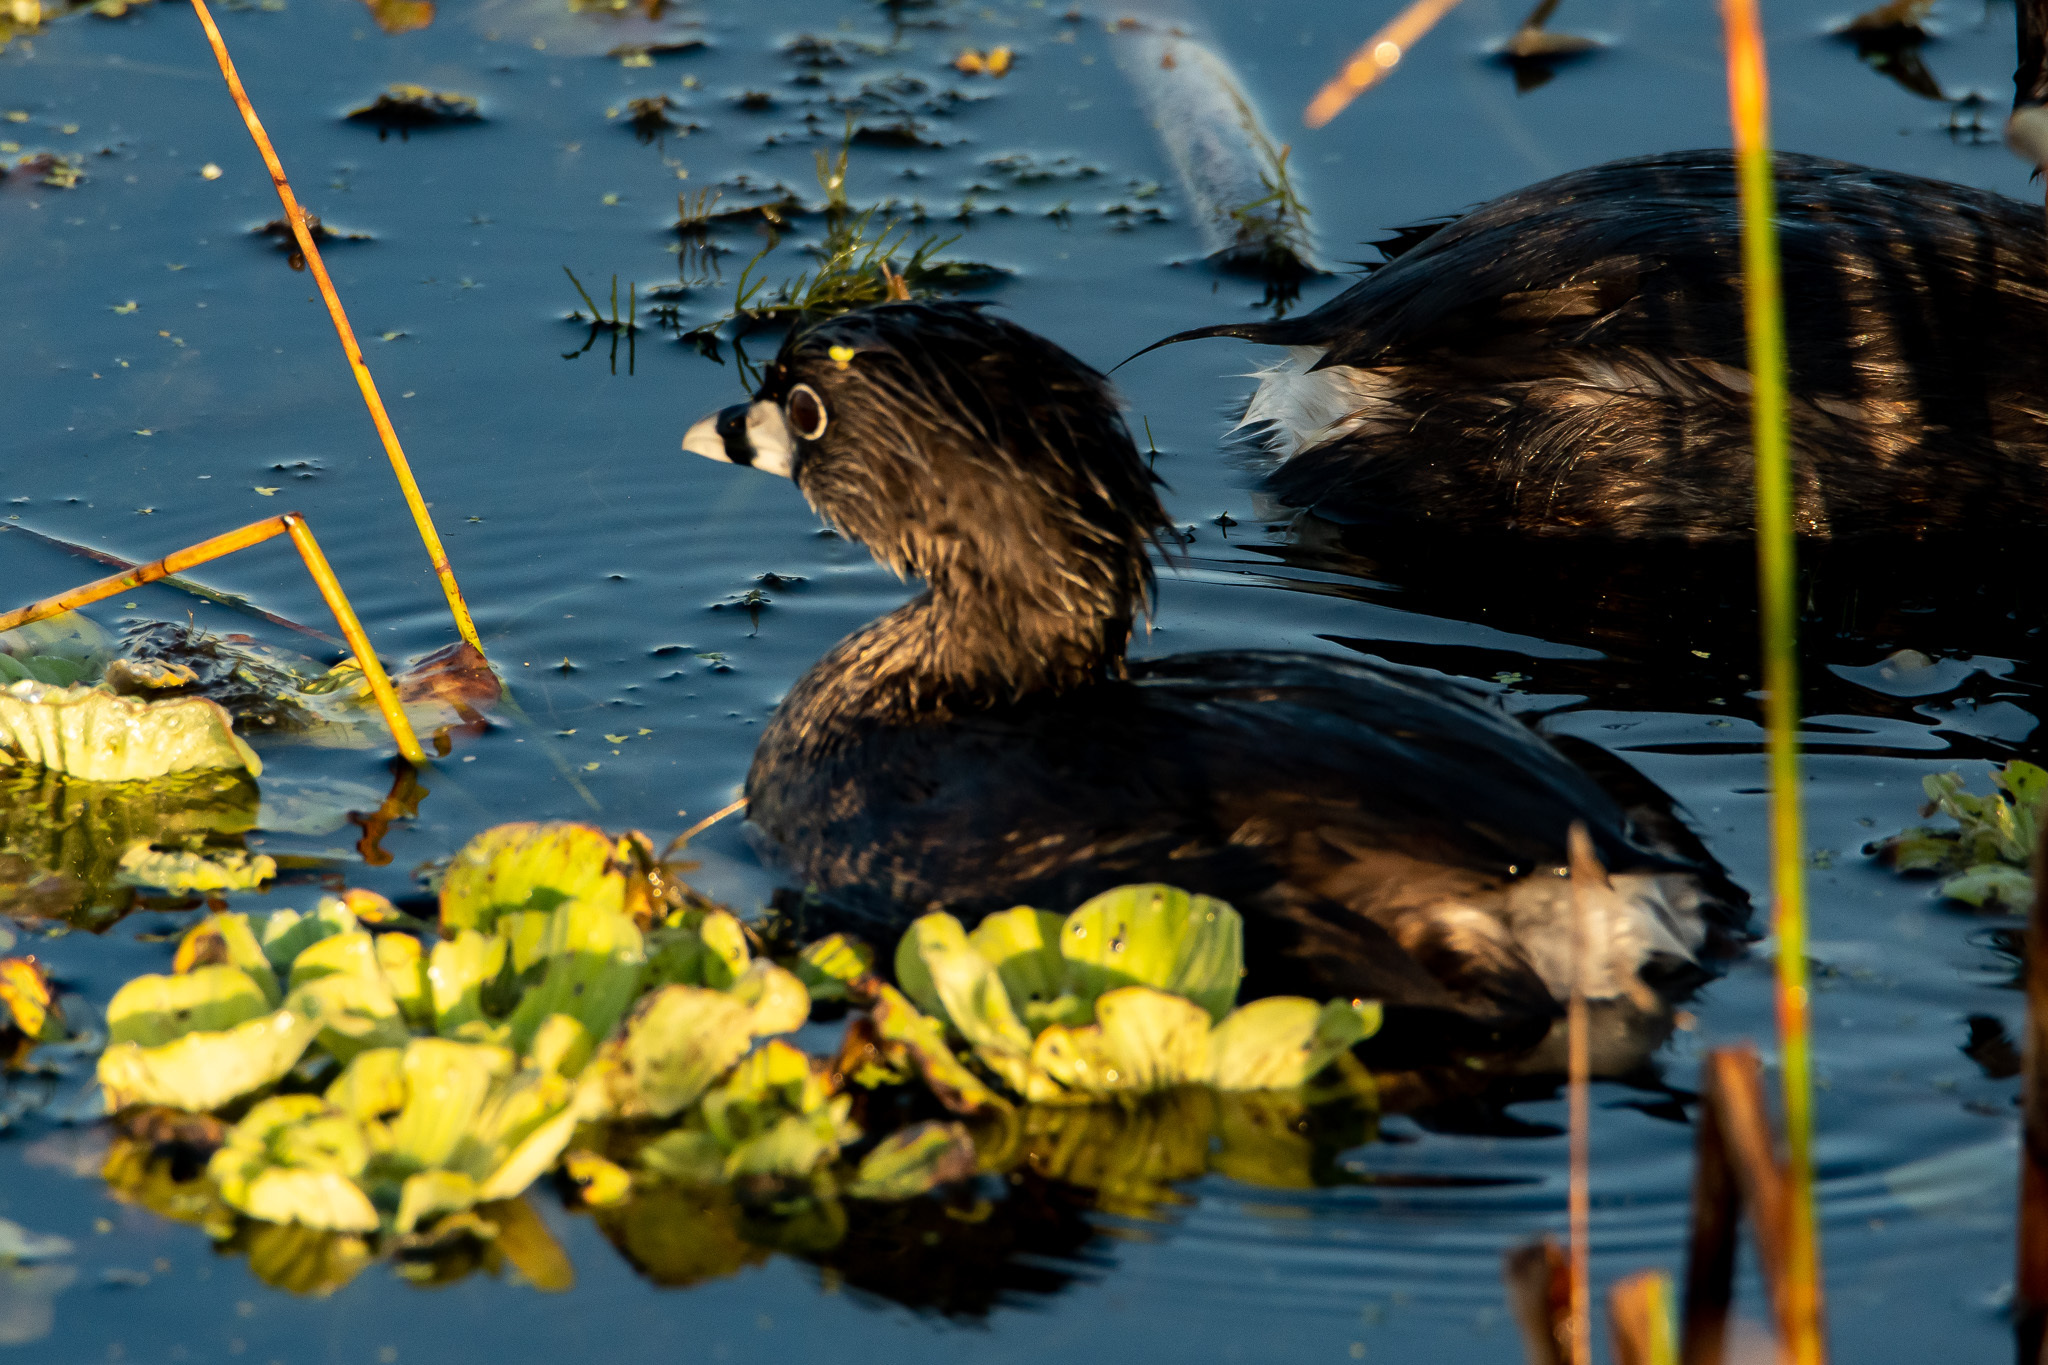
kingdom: Animalia
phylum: Chordata
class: Aves
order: Podicipediformes
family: Podicipedidae
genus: Podilymbus
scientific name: Podilymbus podiceps
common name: Pied-billed grebe
